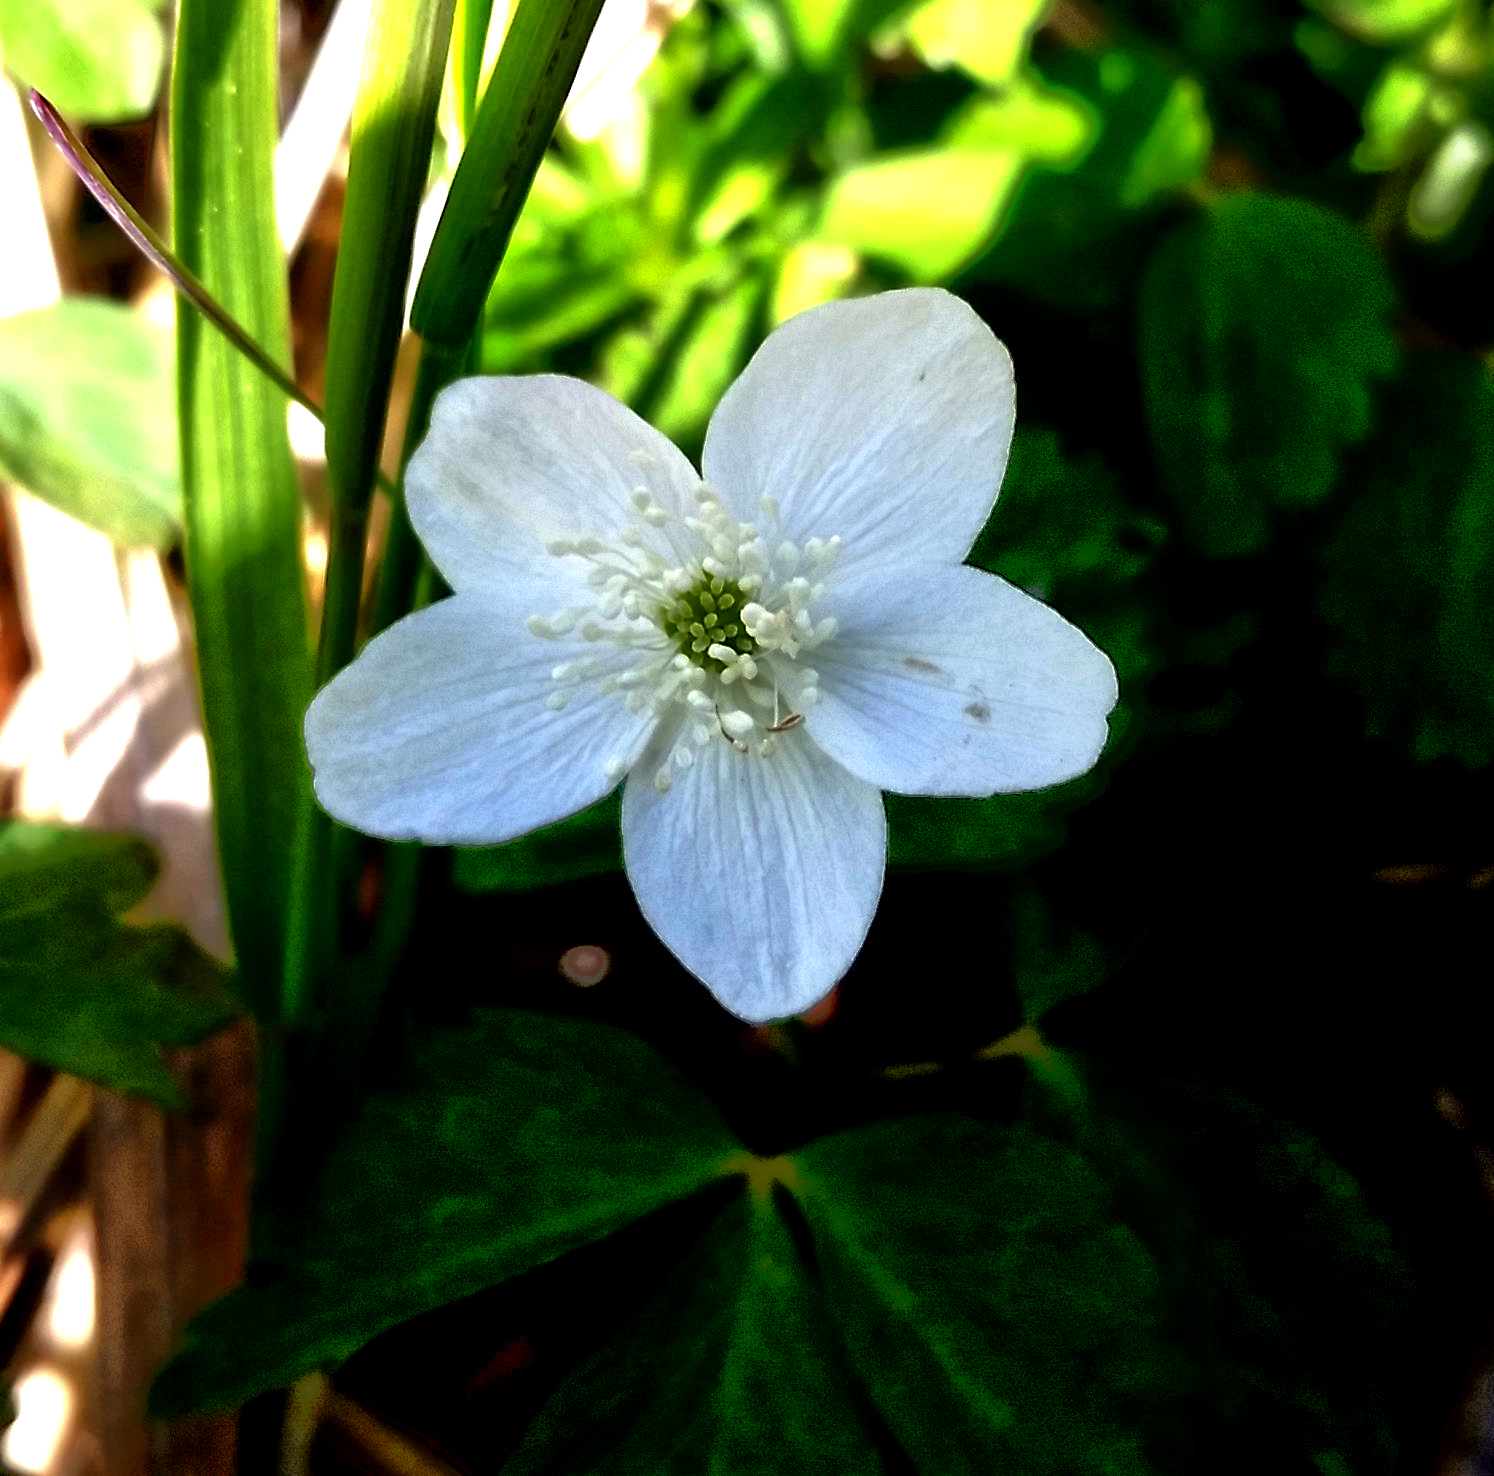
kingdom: Plantae
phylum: Tracheophyta
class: Magnoliopsida
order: Ranunculales
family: Ranunculaceae
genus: Anemone
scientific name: Anemone quinquefolia
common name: Wood anemone
